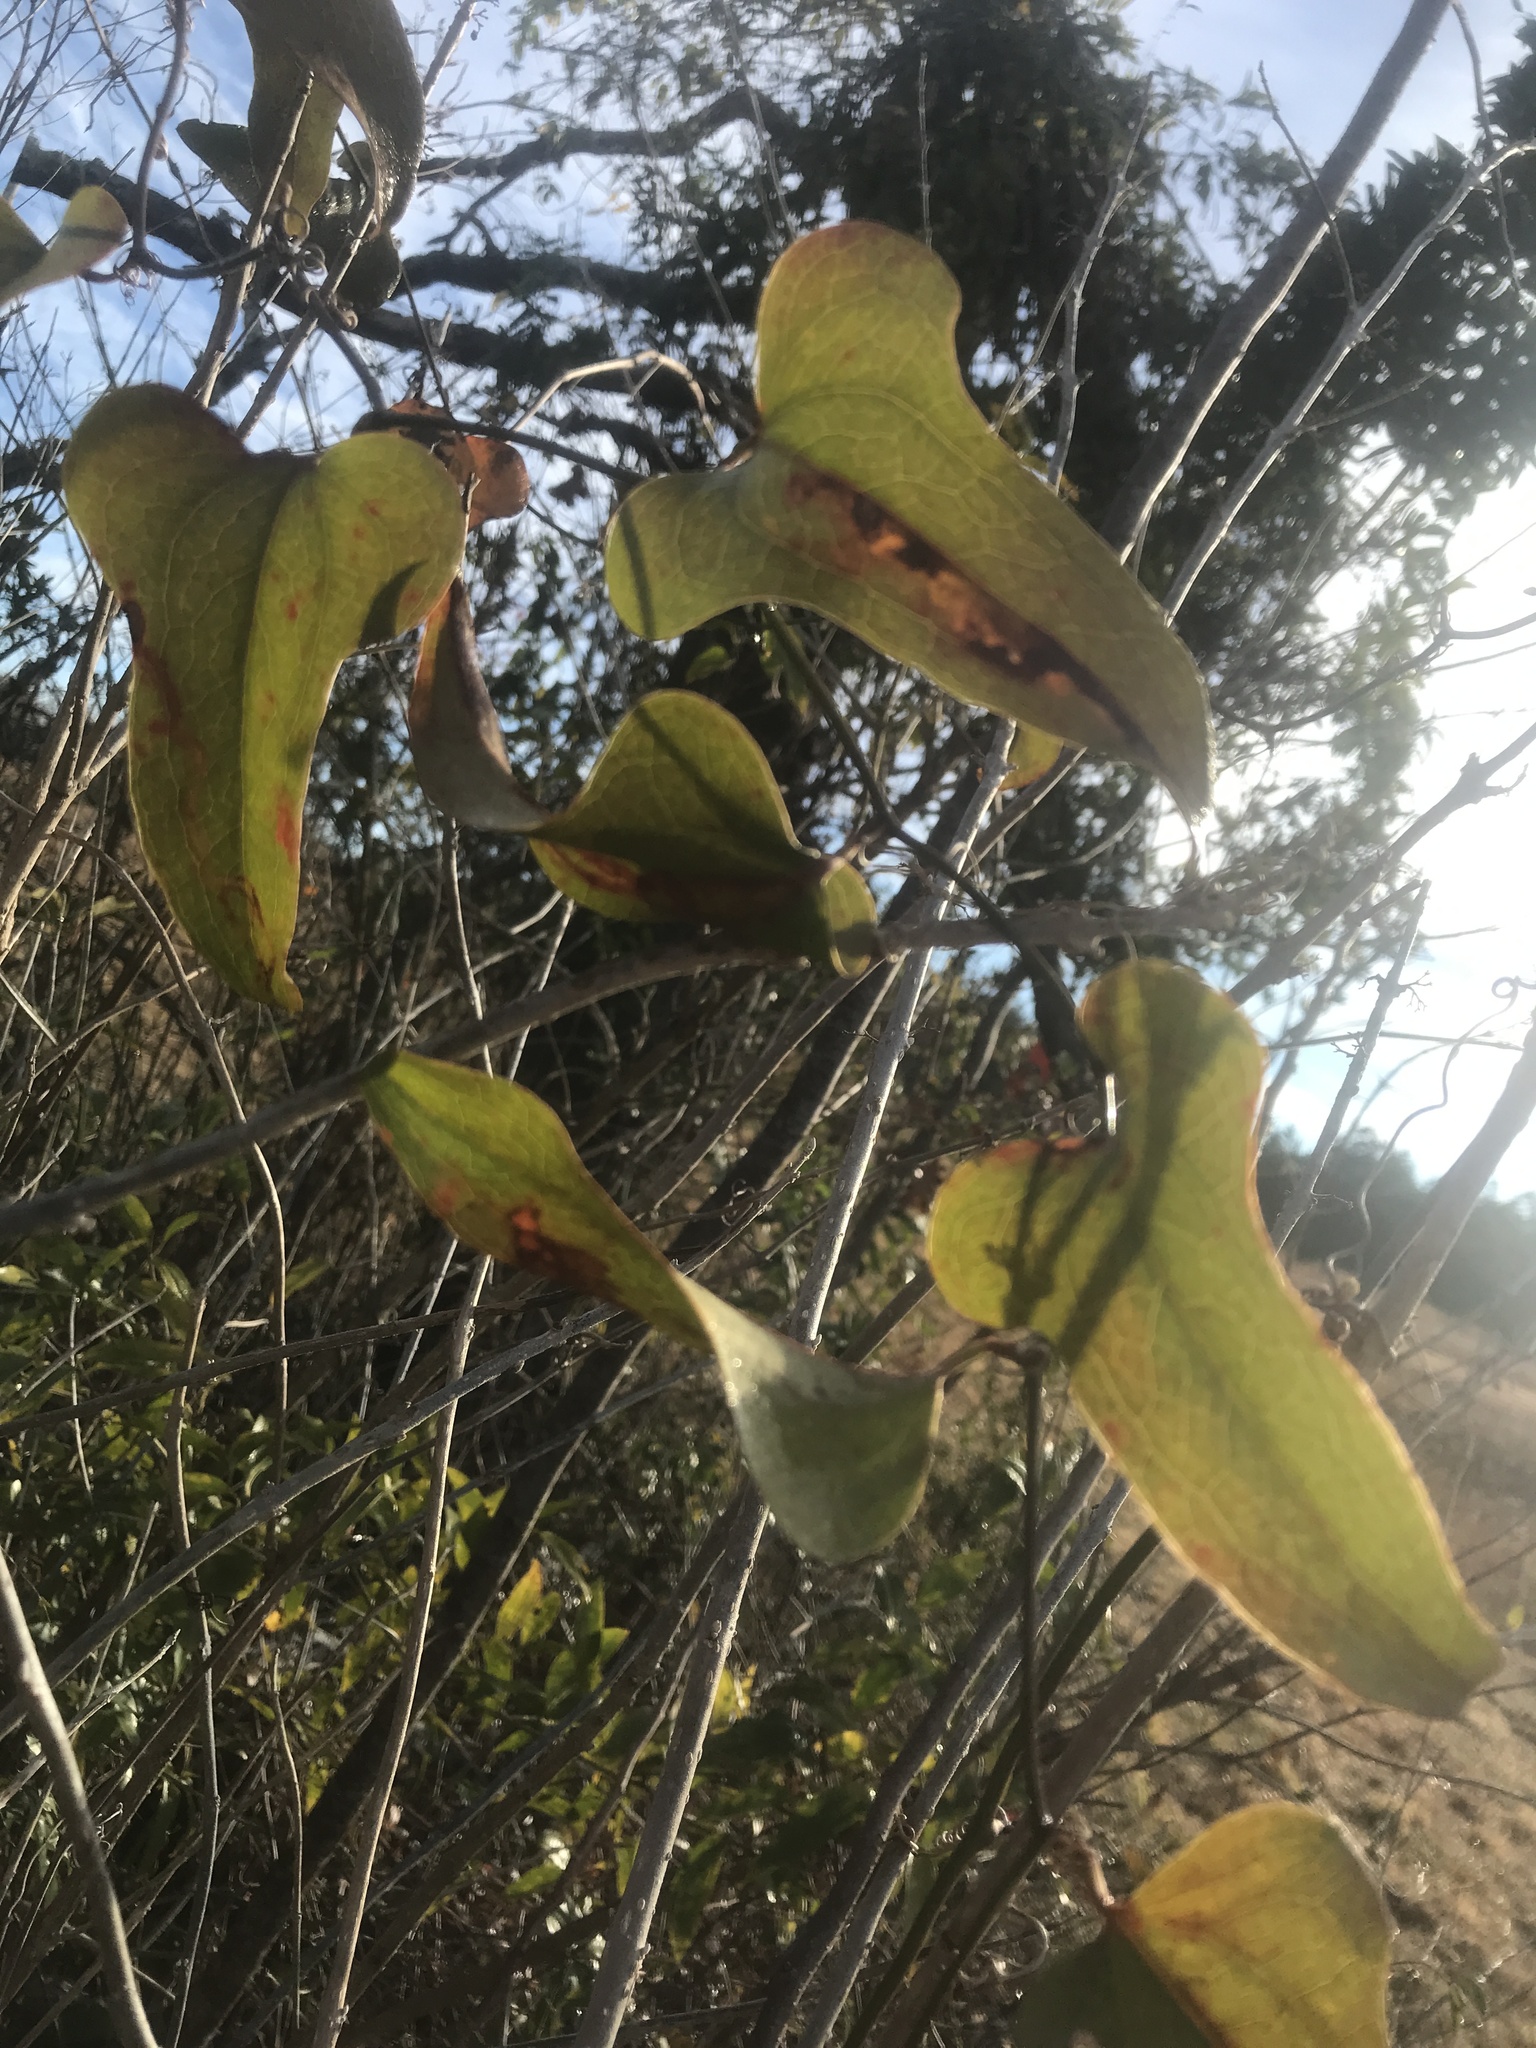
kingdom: Plantae
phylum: Tracheophyta
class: Liliopsida
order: Liliales
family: Smilacaceae
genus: Smilax
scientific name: Smilax bona-nox
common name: Catbrier
